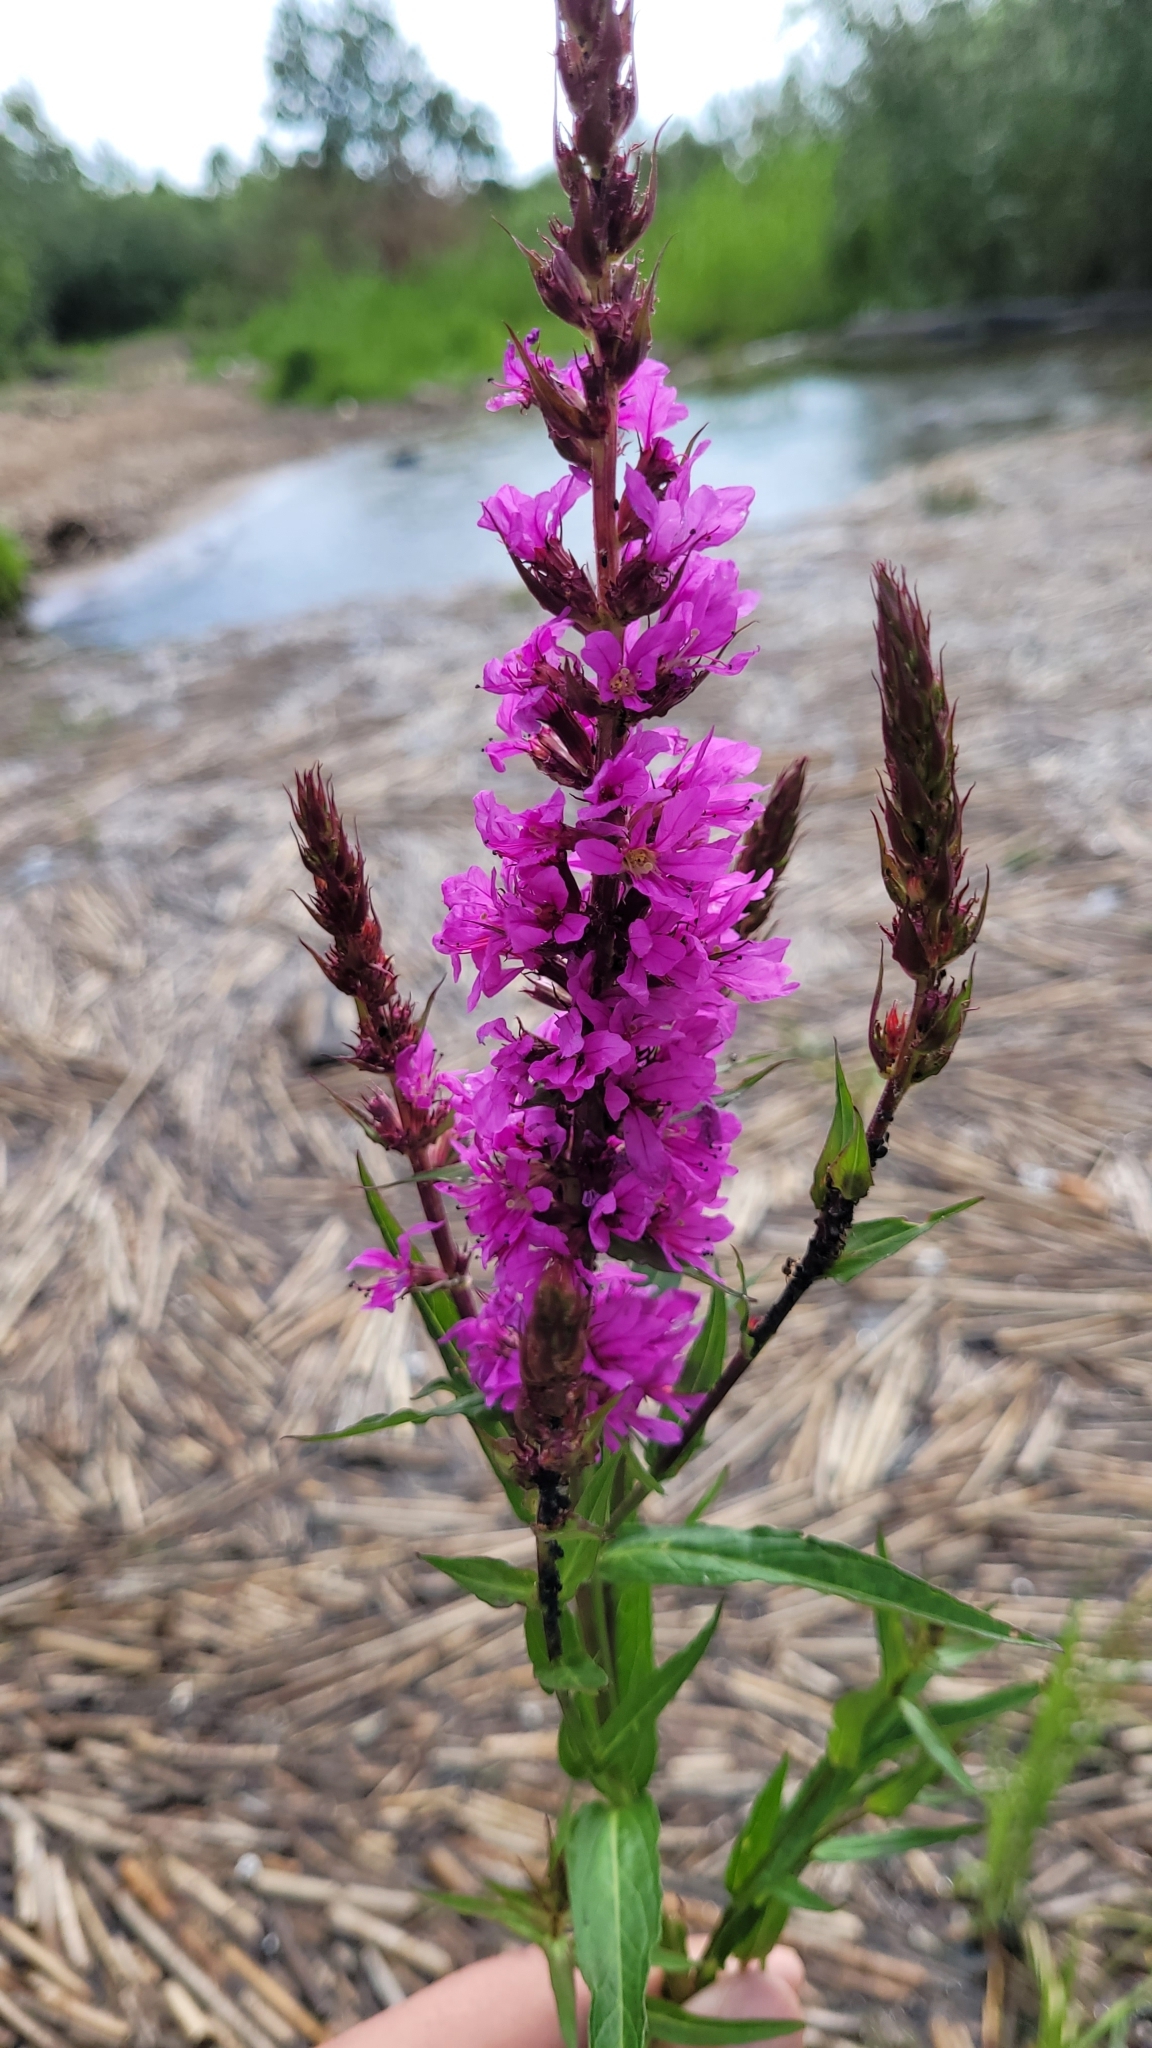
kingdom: Plantae
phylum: Tracheophyta
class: Magnoliopsida
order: Myrtales
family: Lythraceae
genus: Lythrum
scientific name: Lythrum salicaria
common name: Purple loosestrife
